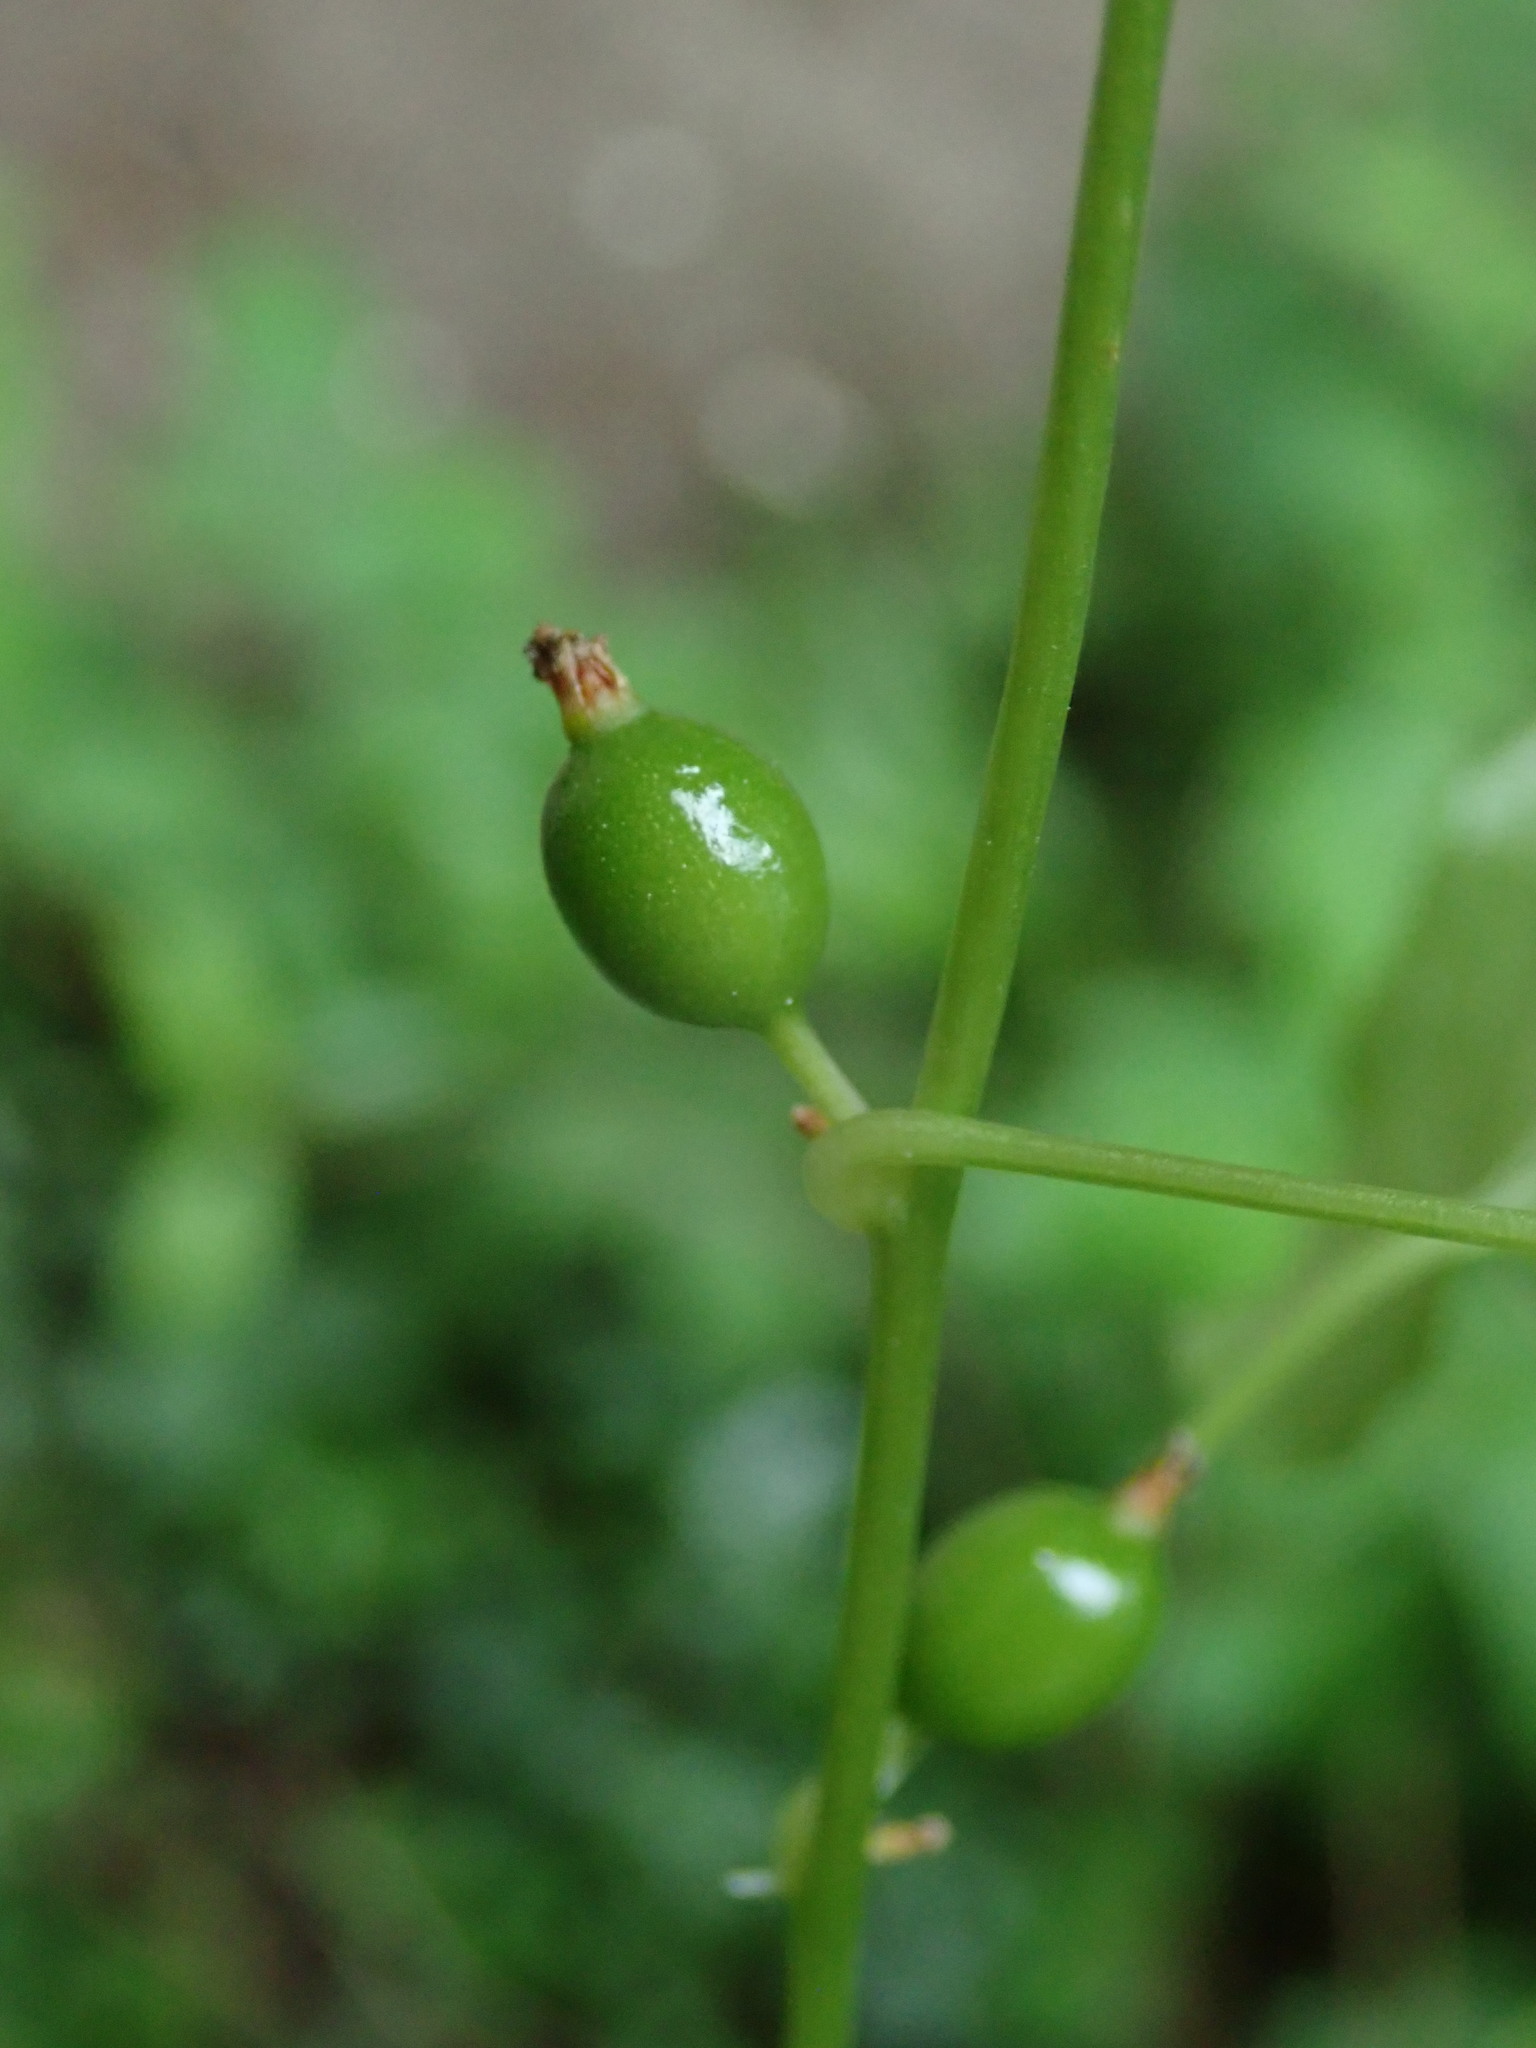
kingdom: Plantae
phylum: Tracheophyta
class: Liliopsida
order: Dioscoreales
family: Dioscoreaceae
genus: Dioscorea
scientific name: Dioscorea communis
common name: Black-bindweed
